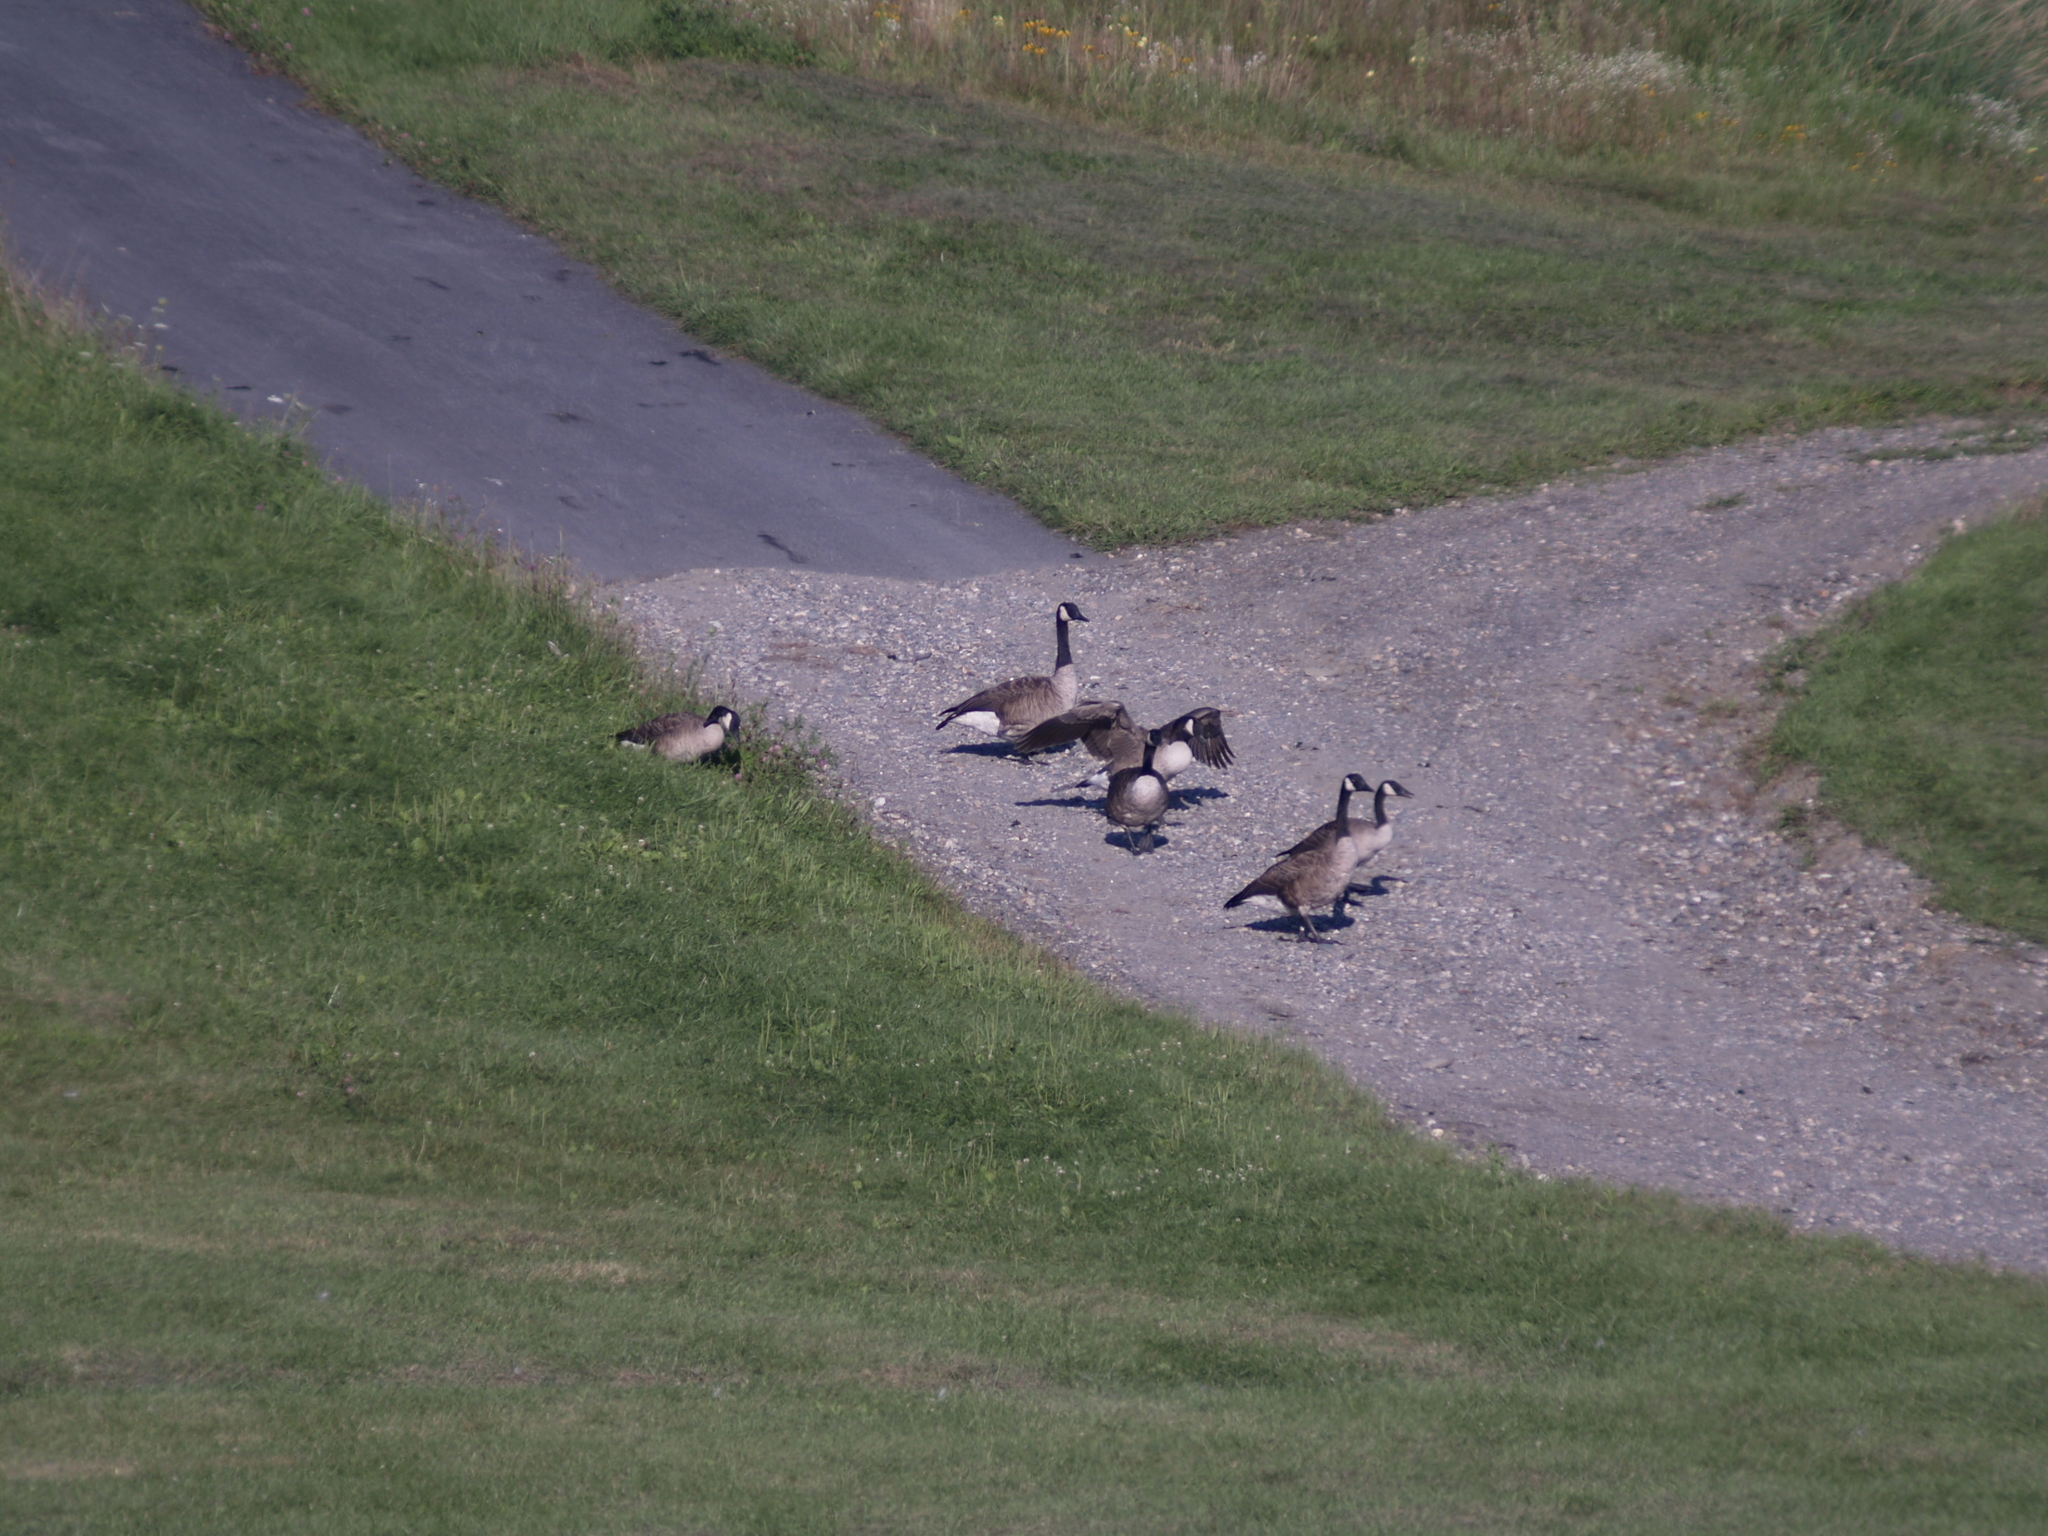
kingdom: Animalia
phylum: Chordata
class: Aves
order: Anseriformes
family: Anatidae
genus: Branta
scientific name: Branta canadensis
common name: Canada goose
